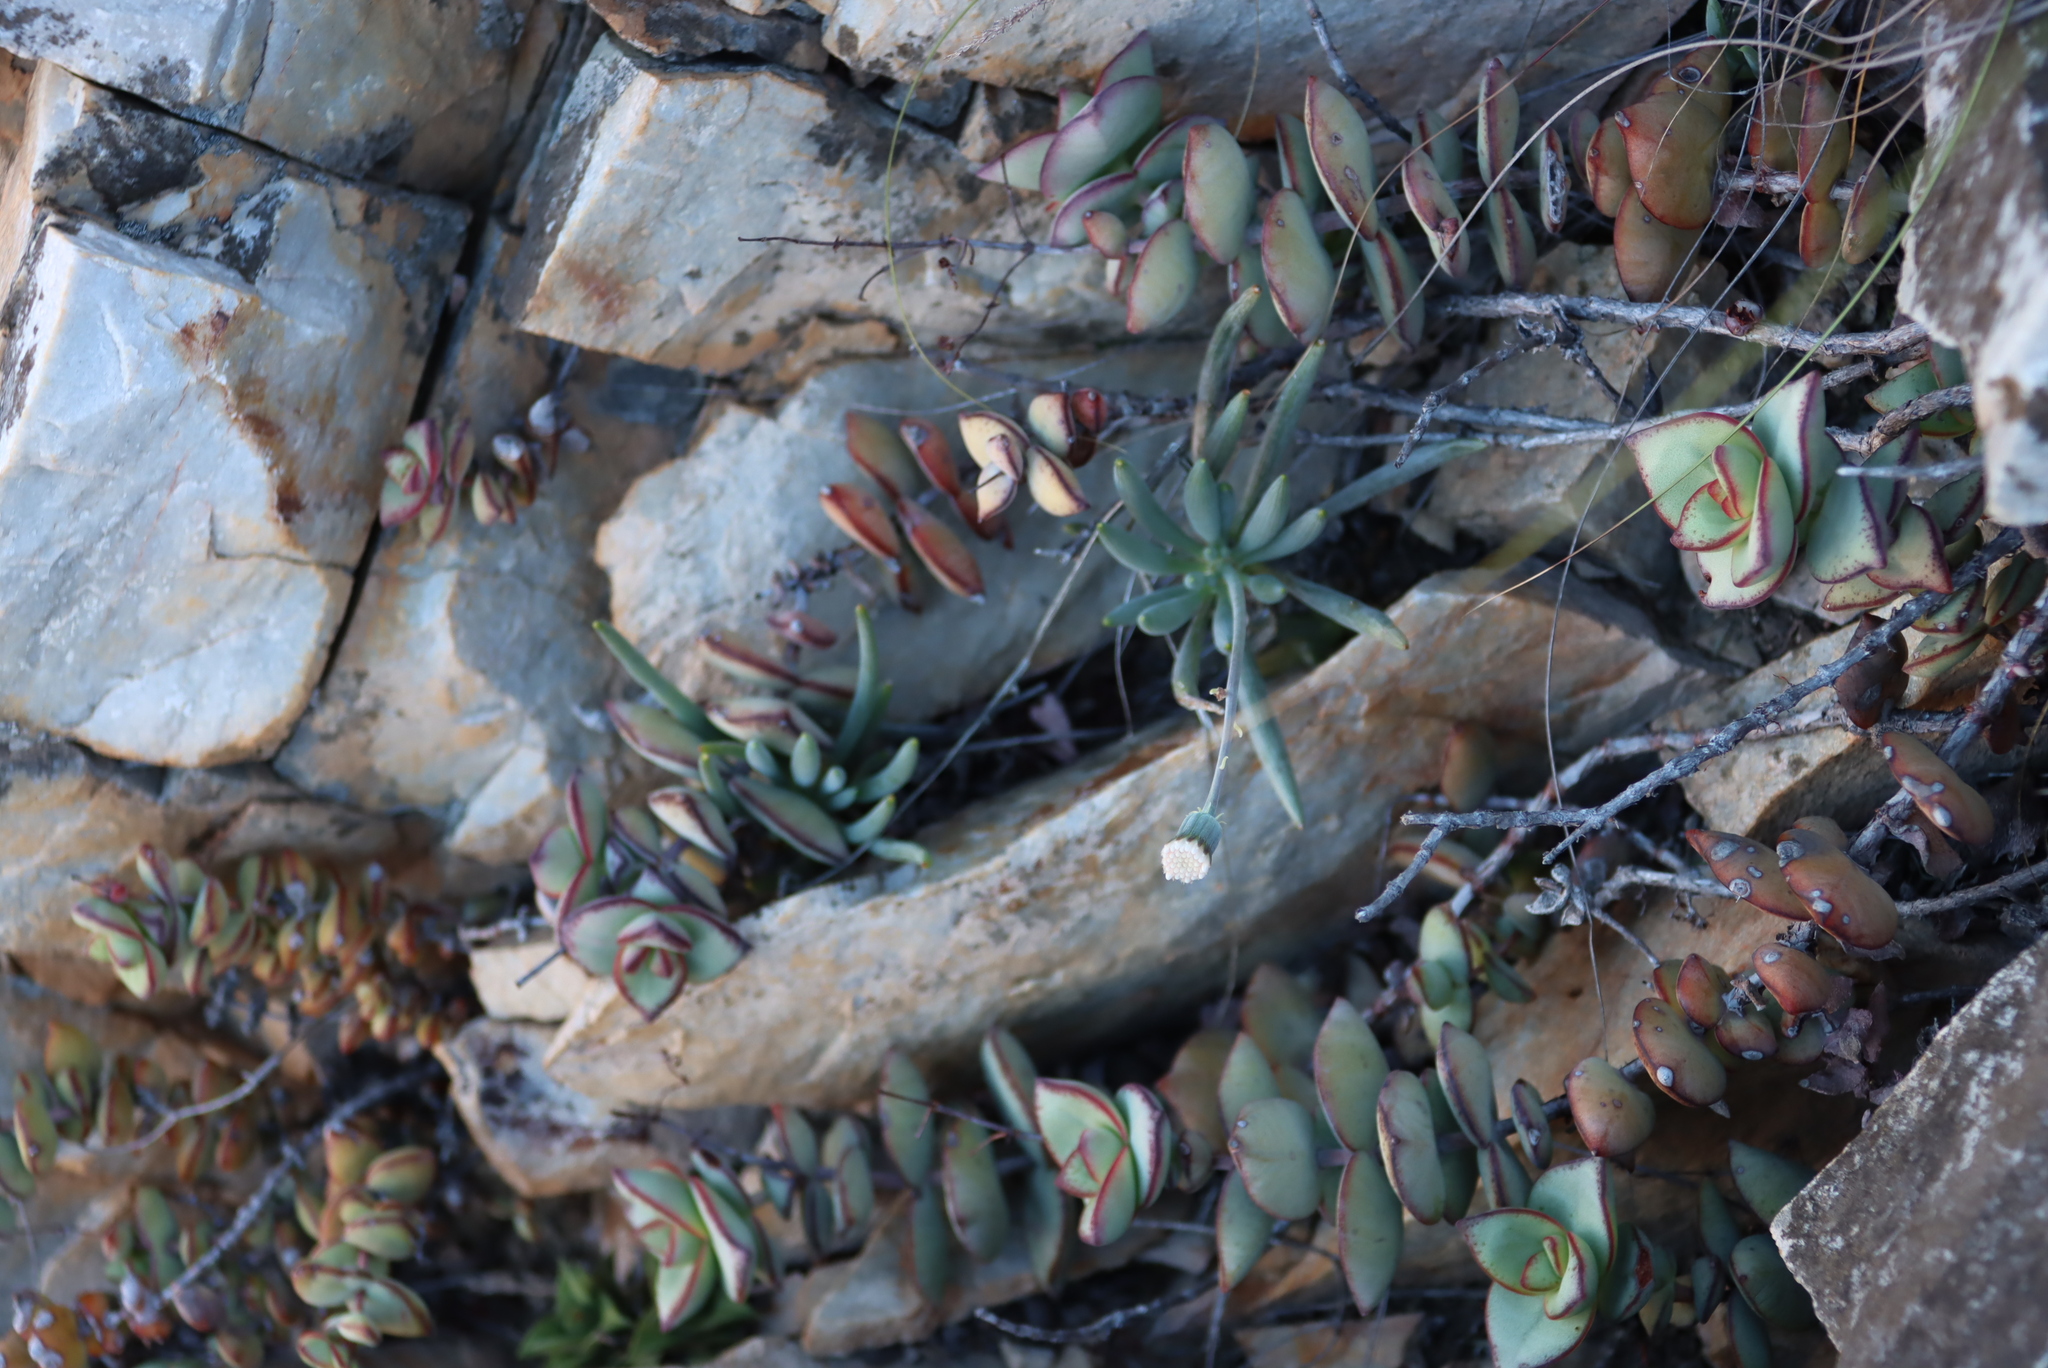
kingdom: Plantae
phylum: Tracheophyta
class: Magnoliopsida
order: Saxifragales
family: Crassulaceae
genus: Crassula
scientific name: Crassula perforata
